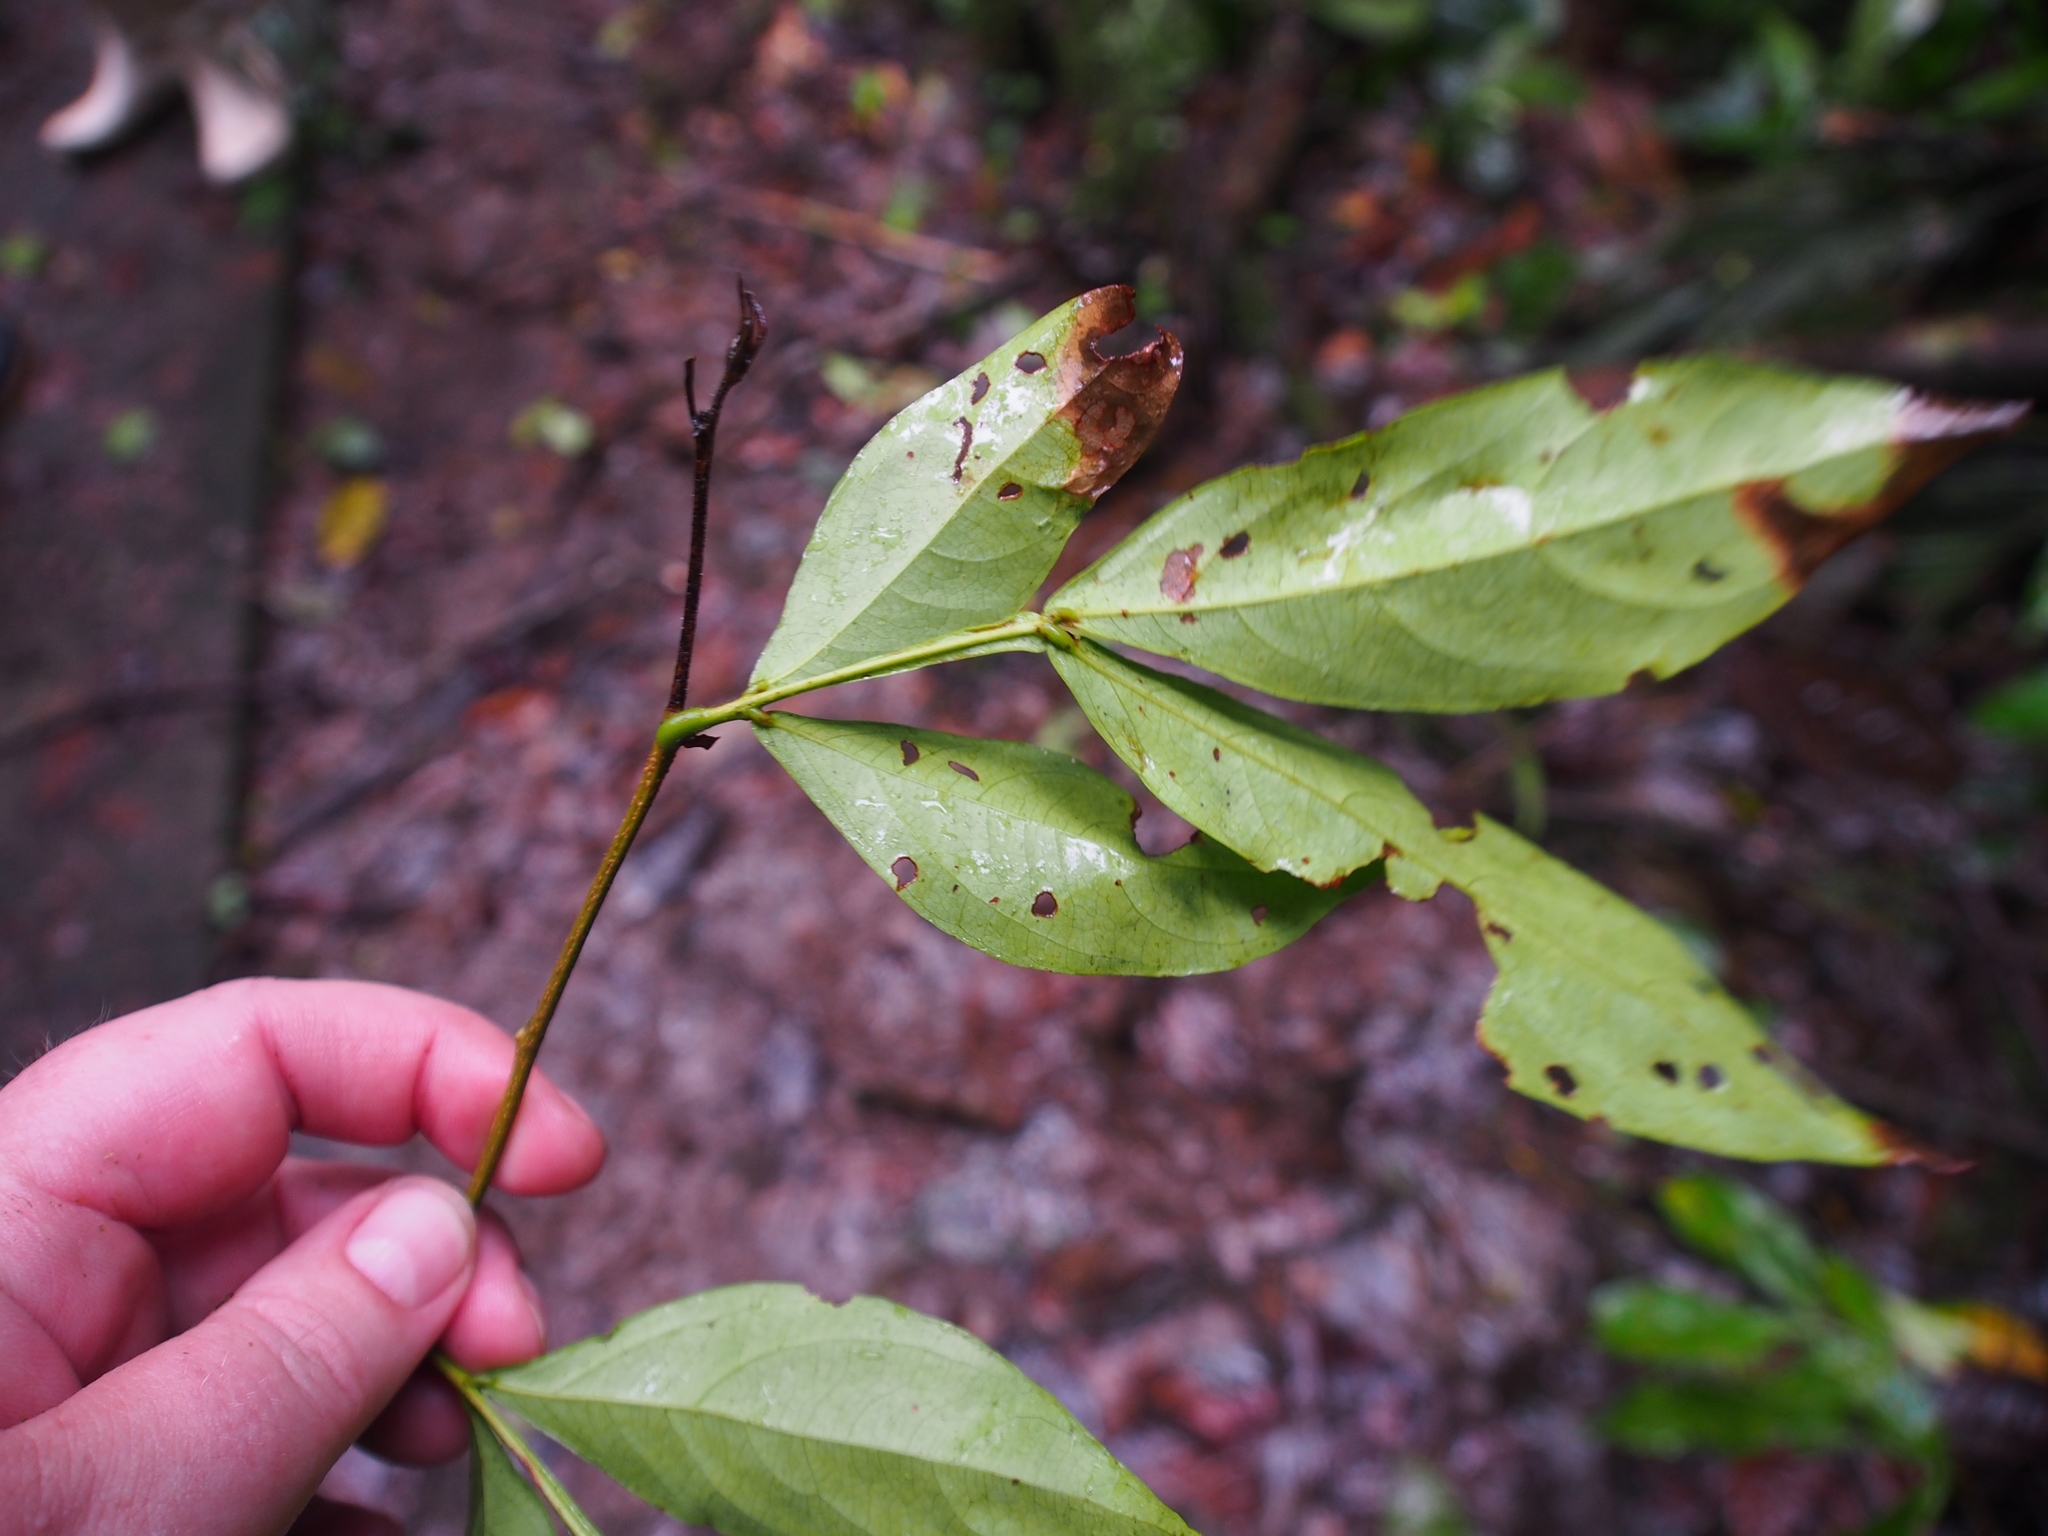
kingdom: Plantae
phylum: Tracheophyta
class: Magnoliopsida
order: Fabales
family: Fabaceae
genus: Inga
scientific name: Inga marginata
